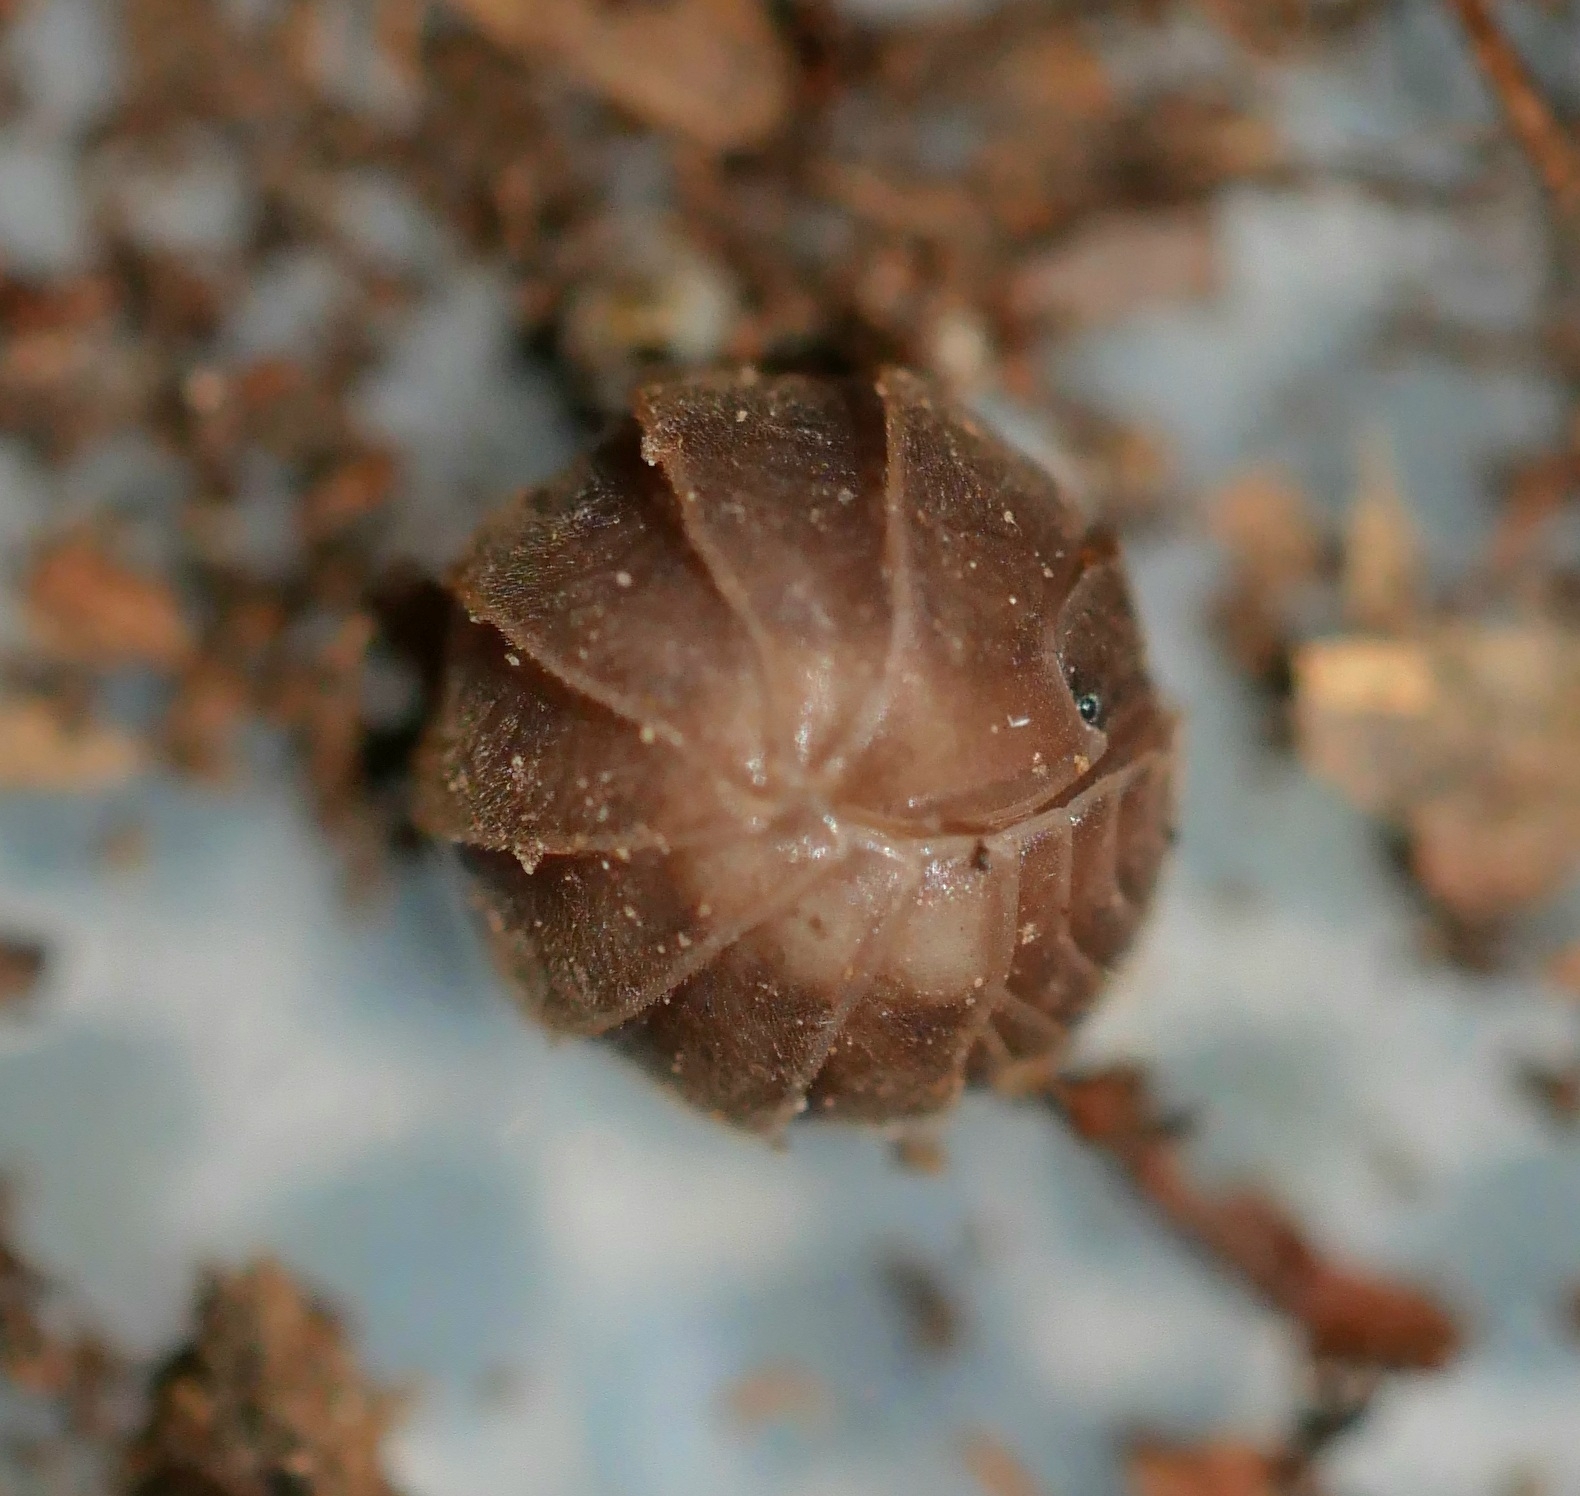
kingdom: Animalia
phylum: Arthropoda
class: Malacostraca
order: Isopoda
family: Armadillidiidae
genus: Eluma
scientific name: Eluma caelata
